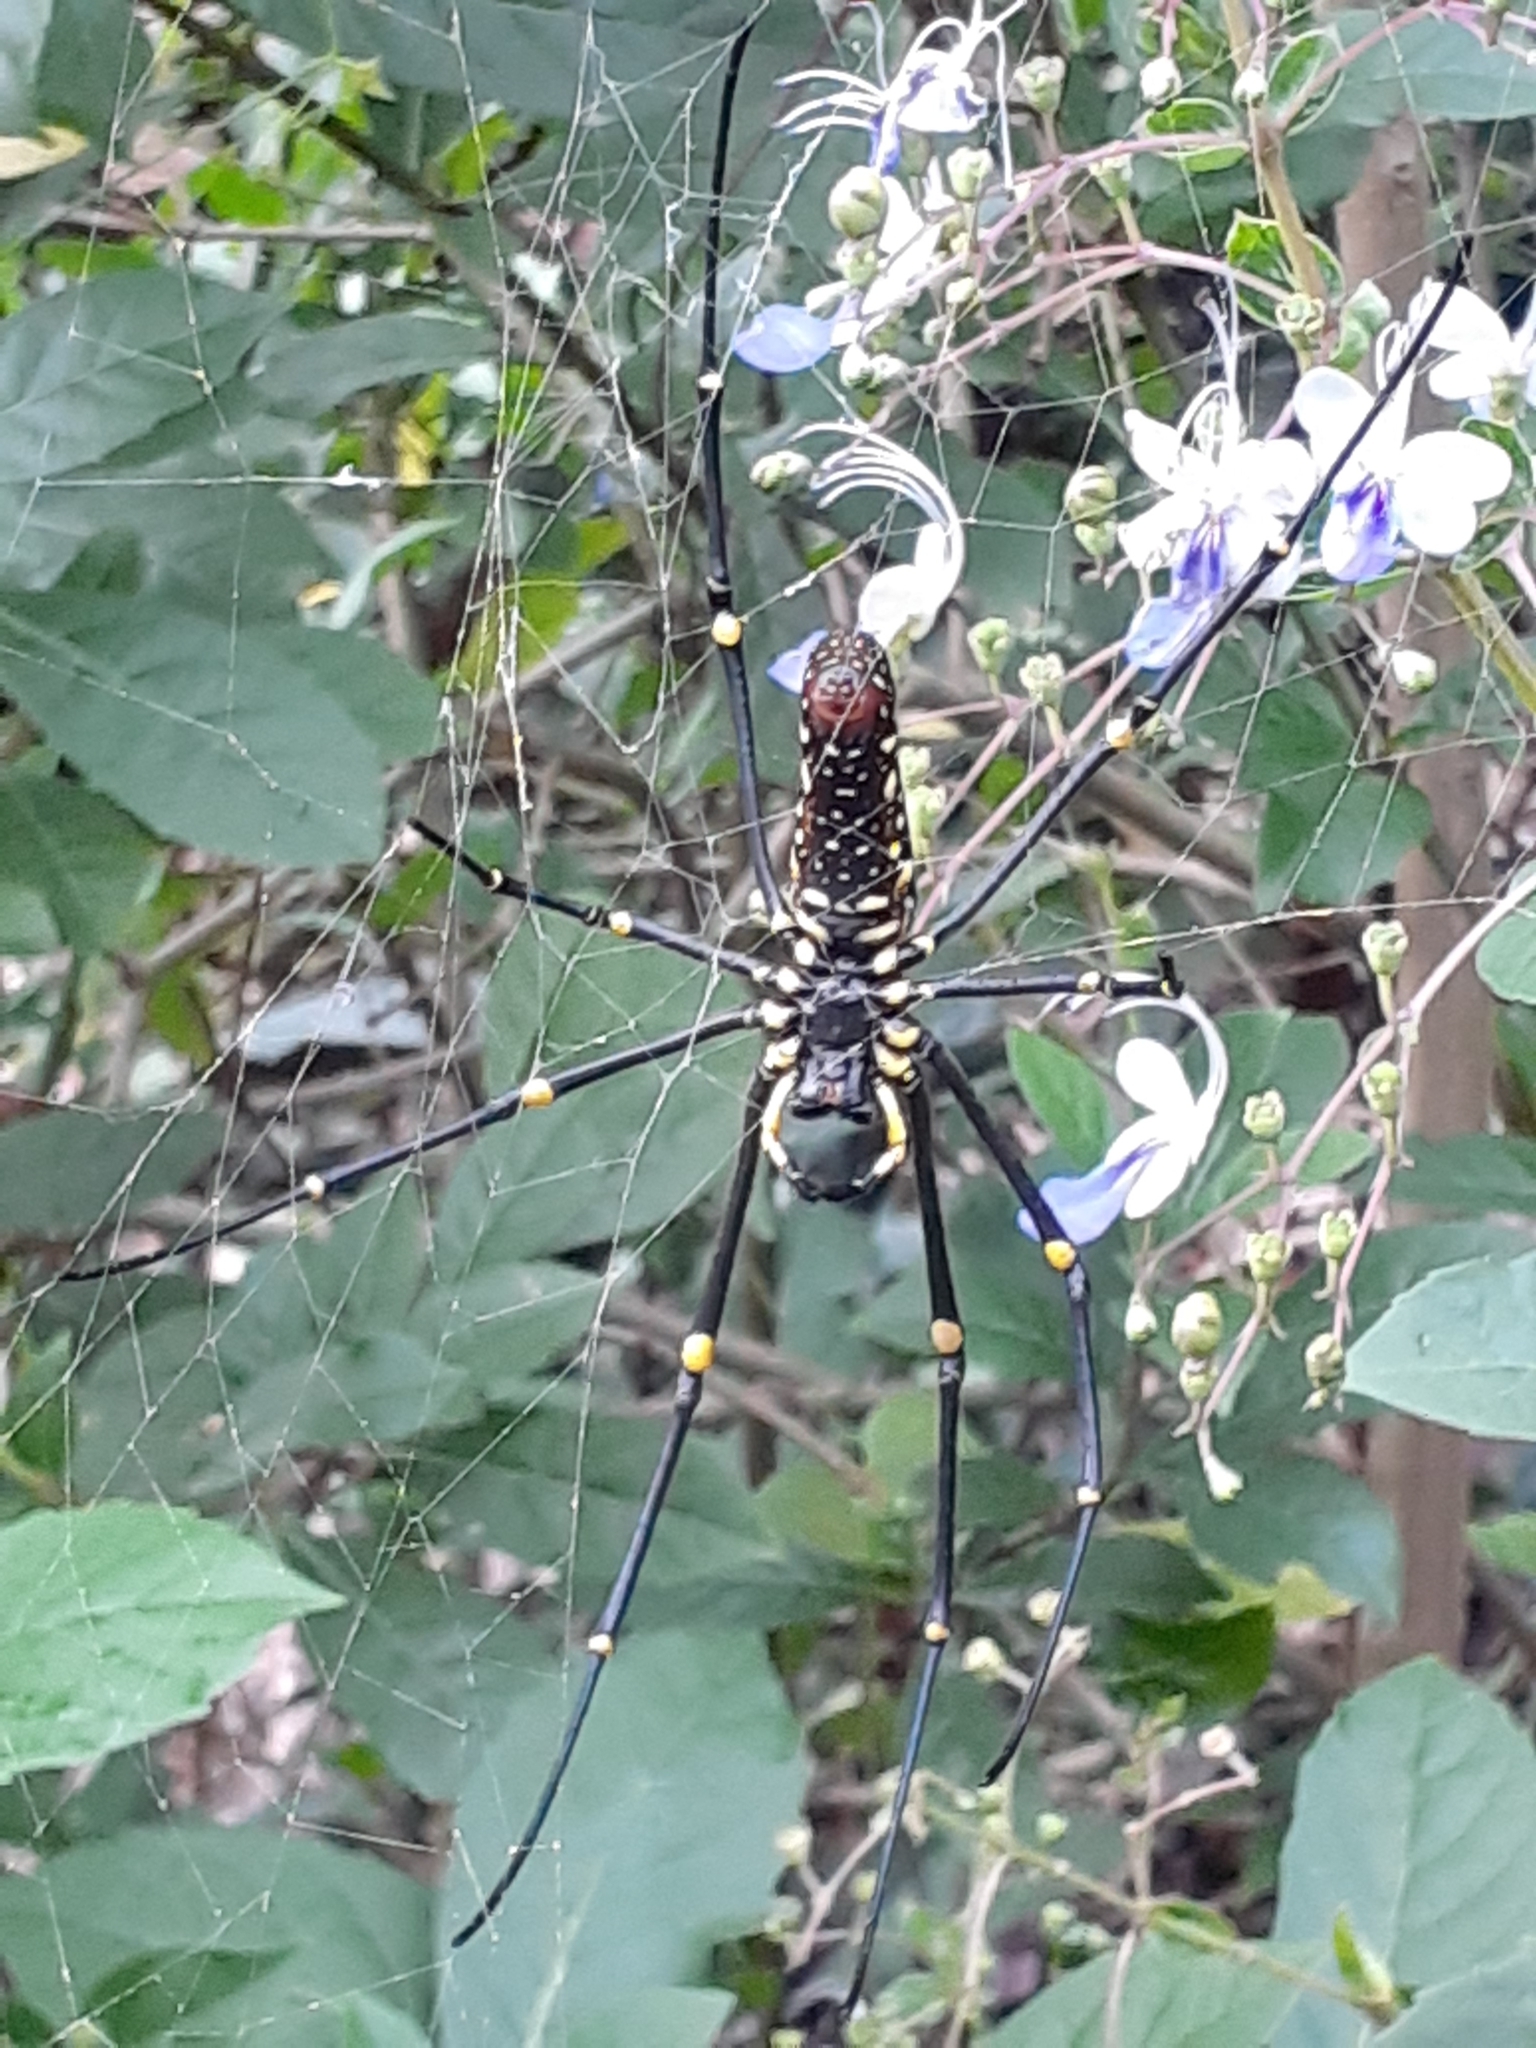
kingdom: Animalia
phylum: Arthropoda
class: Arachnida
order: Araneae
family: Araneidae
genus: Nephila
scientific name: Nephila pilipes
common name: Giant golden orb weaver
